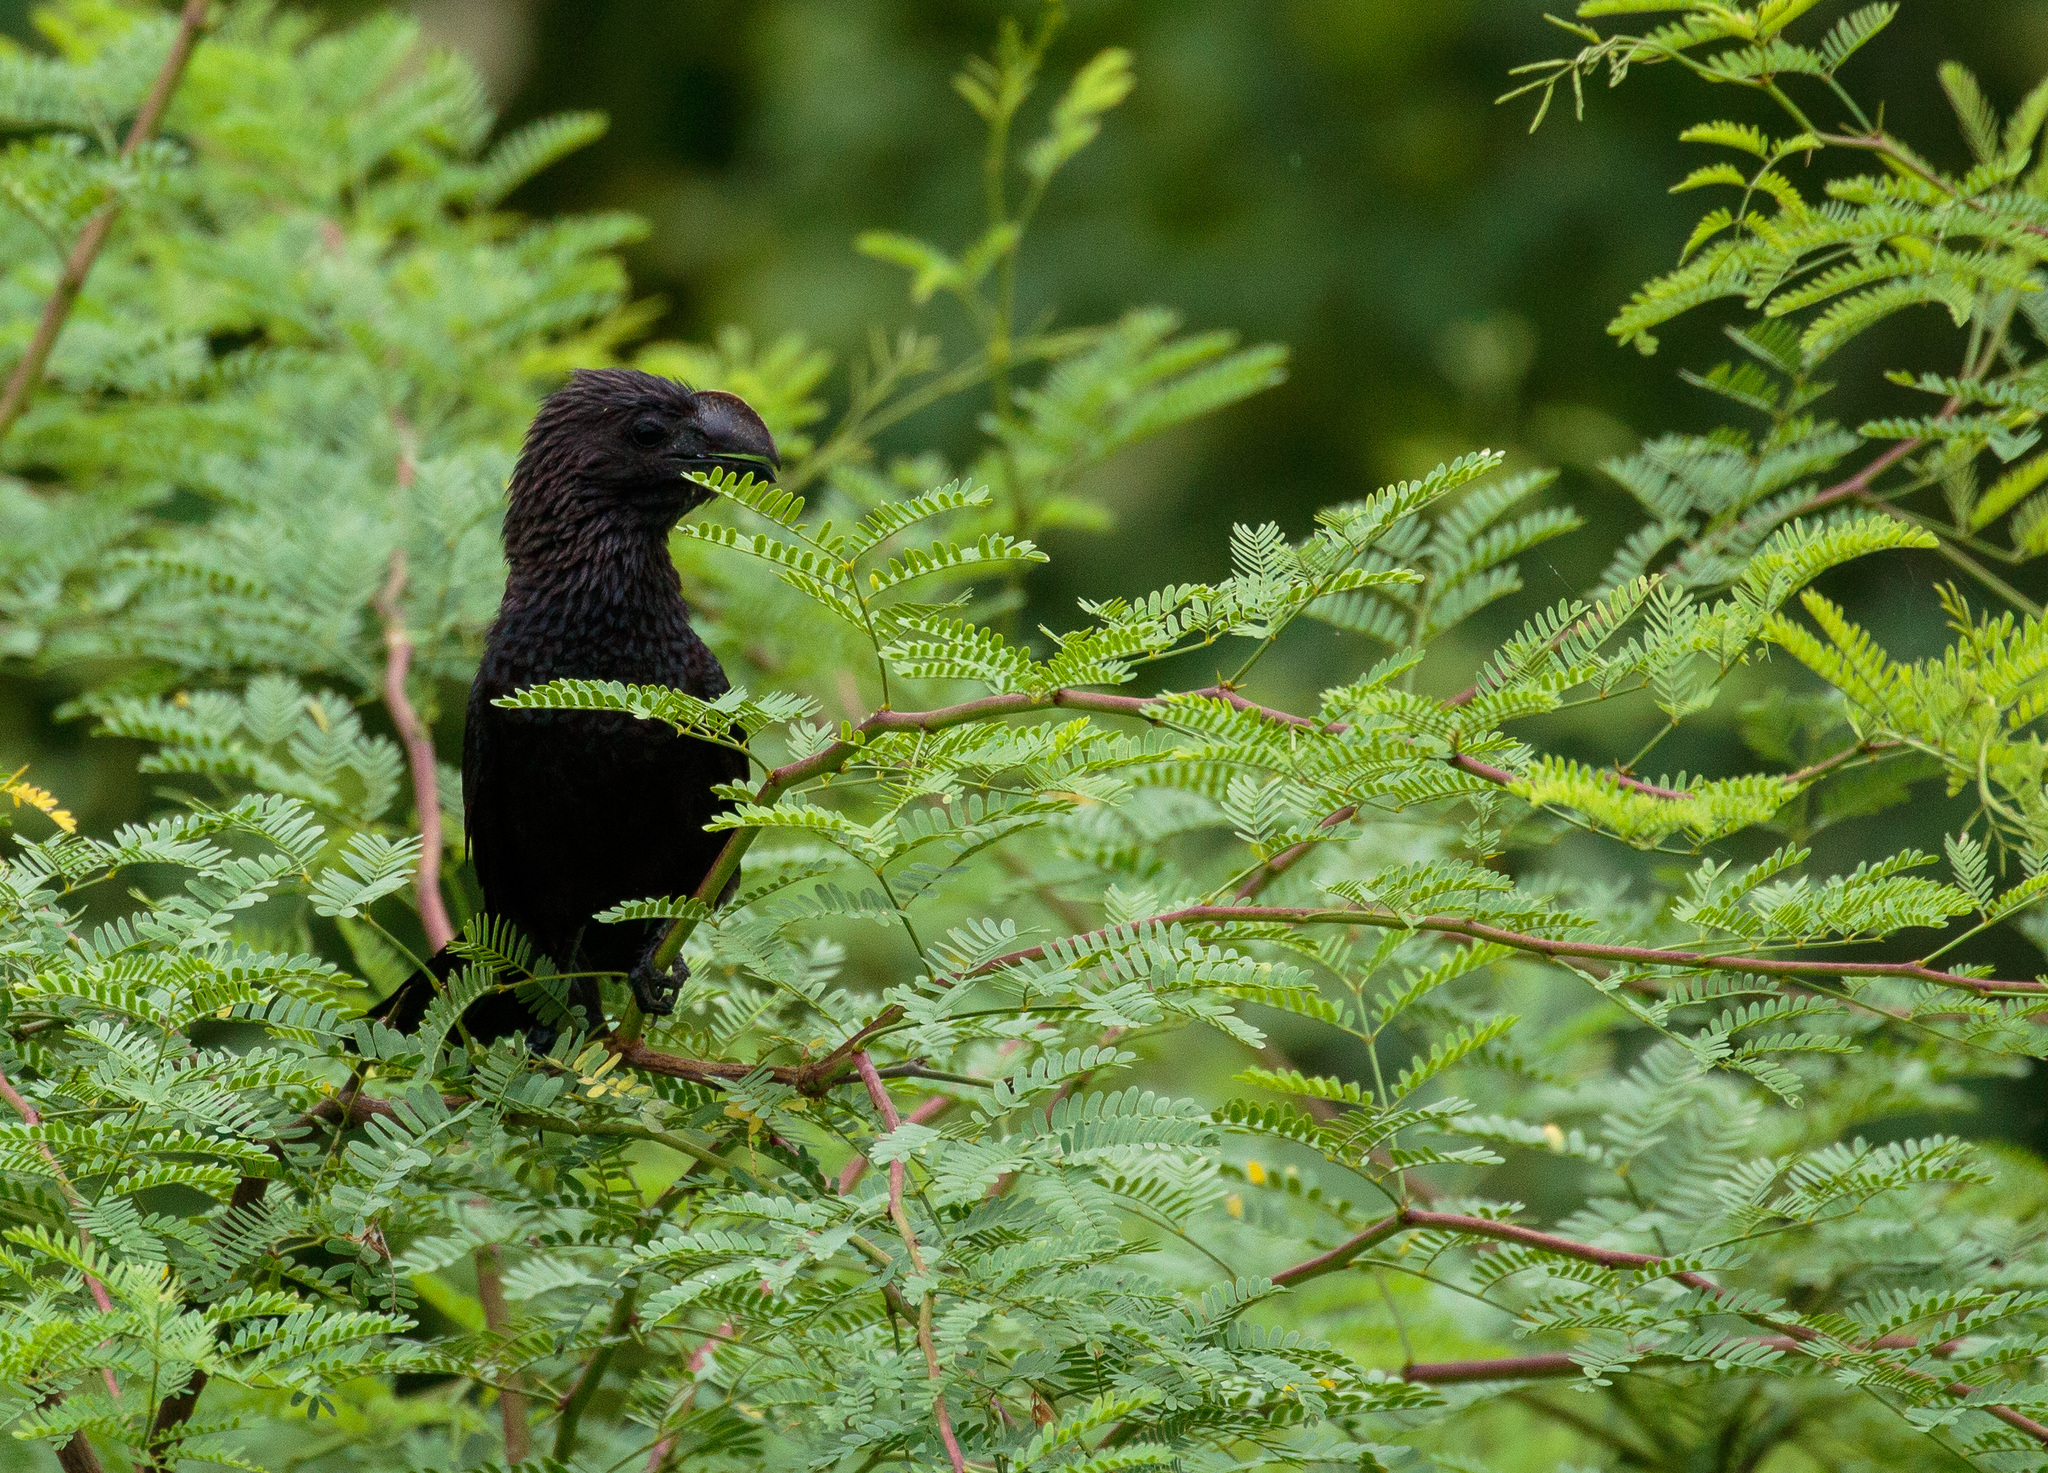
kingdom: Animalia
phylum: Chordata
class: Aves
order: Cuculiformes
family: Cuculidae
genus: Crotophaga
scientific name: Crotophaga ani
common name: Smooth-billed ani
